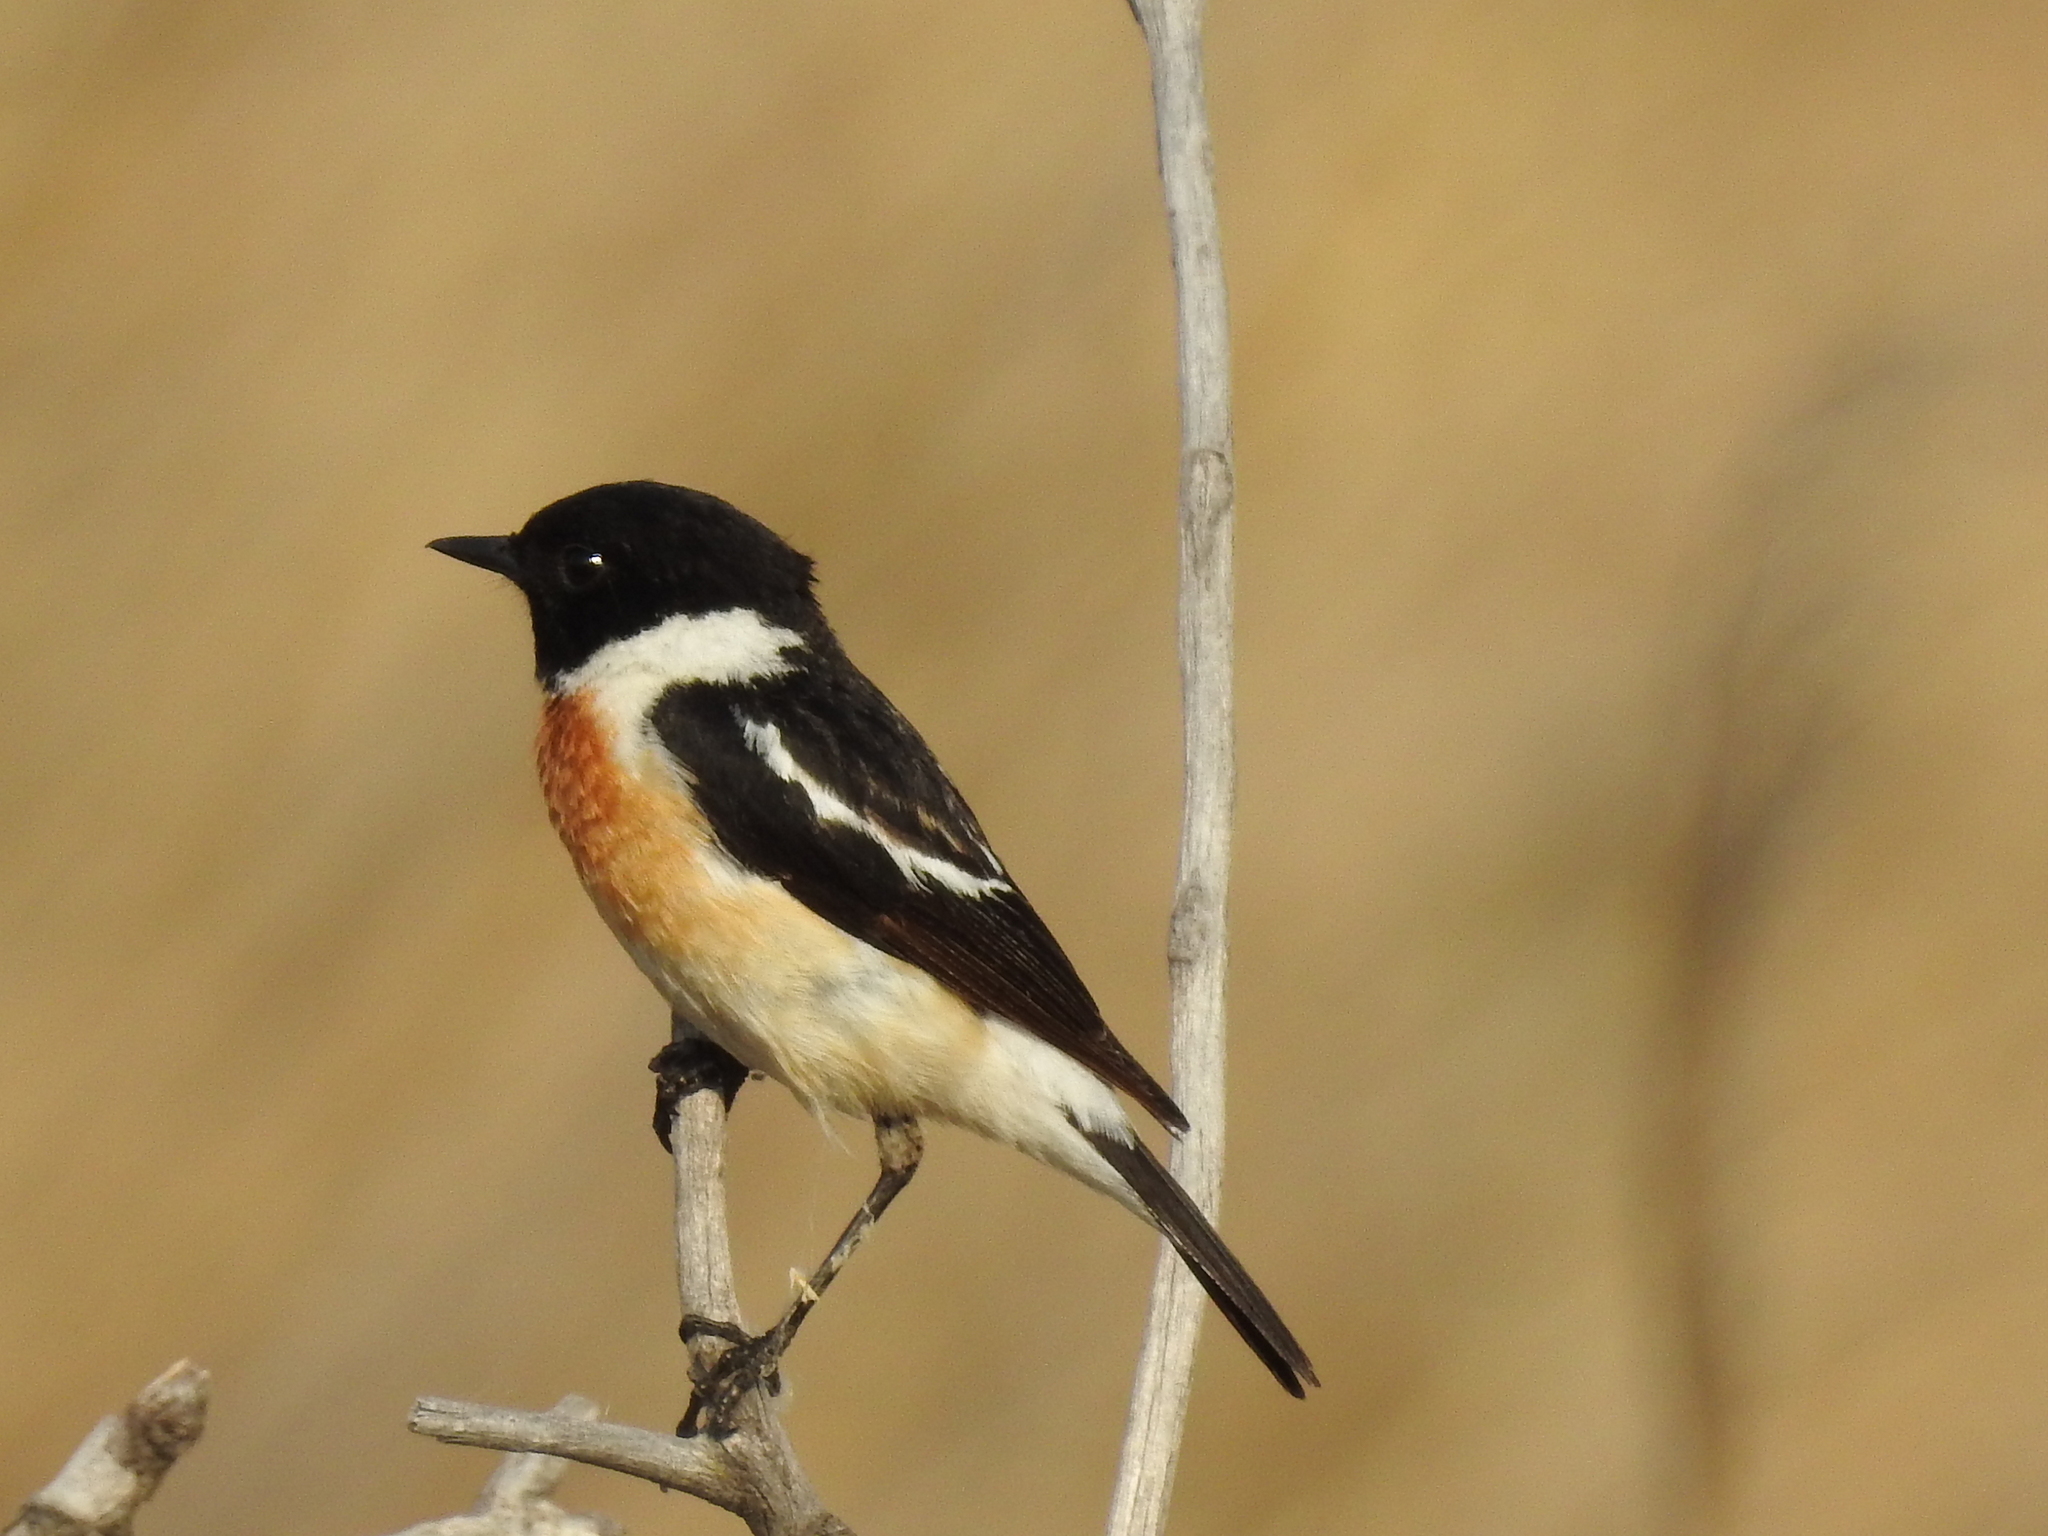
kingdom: Animalia
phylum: Chordata
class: Aves
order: Passeriformes
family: Muscicapidae
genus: Saxicola
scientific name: Saxicola maurus
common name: Siberian stonechat
